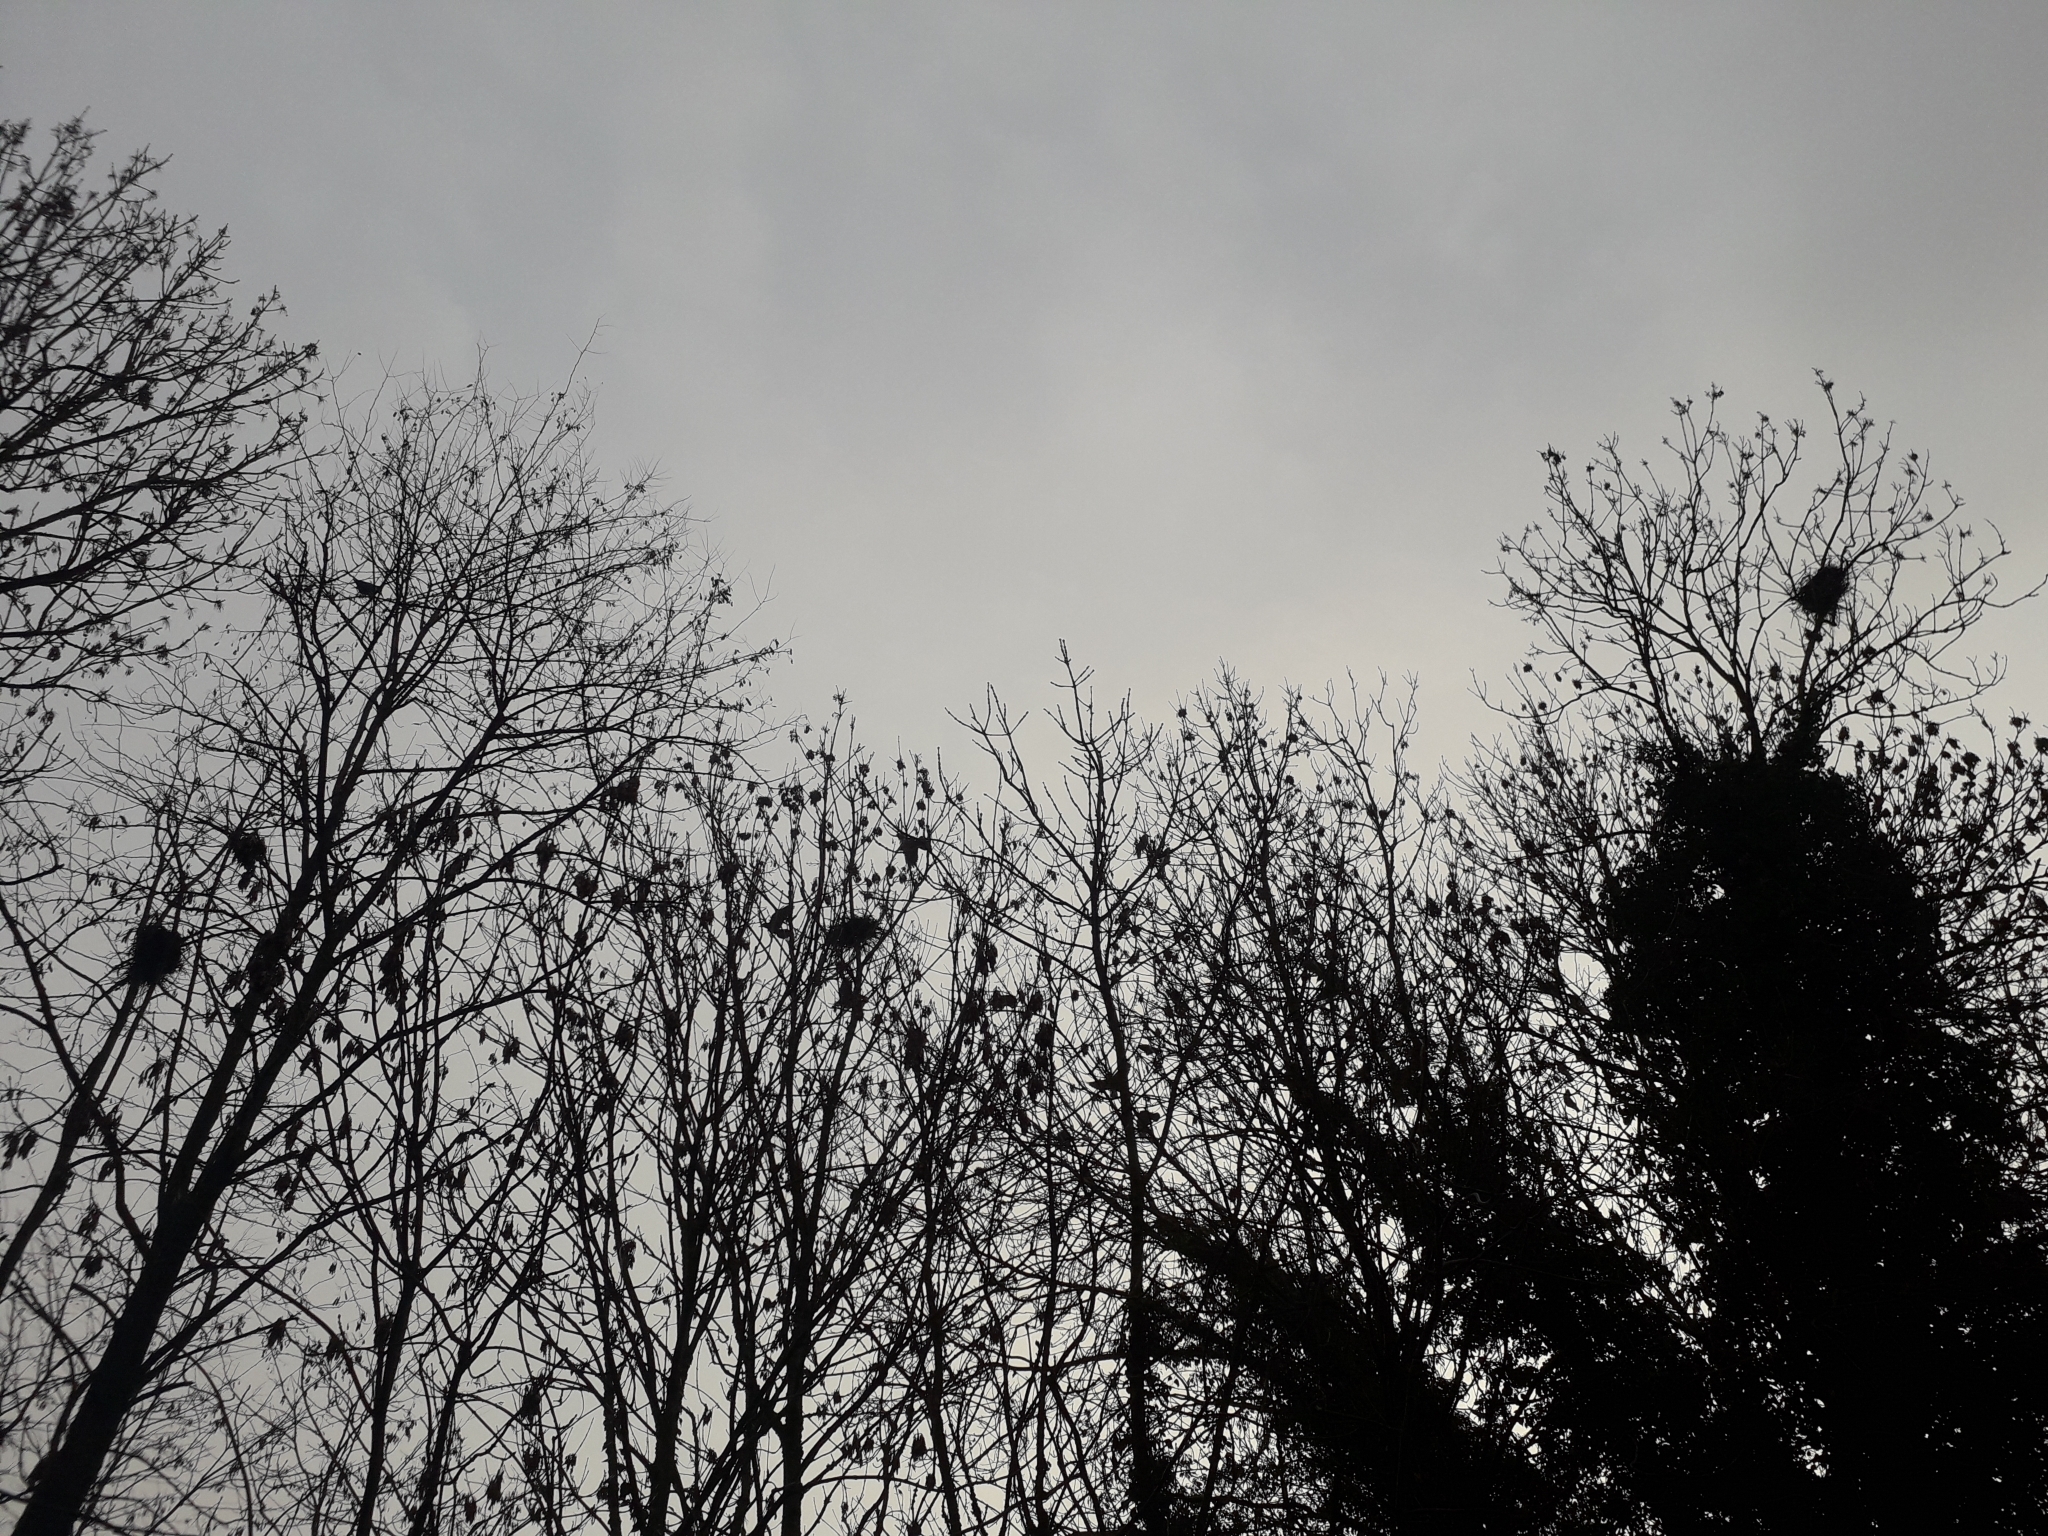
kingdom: Animalia
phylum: Chordata
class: Aves
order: Passeriformes
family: Corvidae
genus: Corvus
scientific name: Corvus frugilegus
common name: Rook
